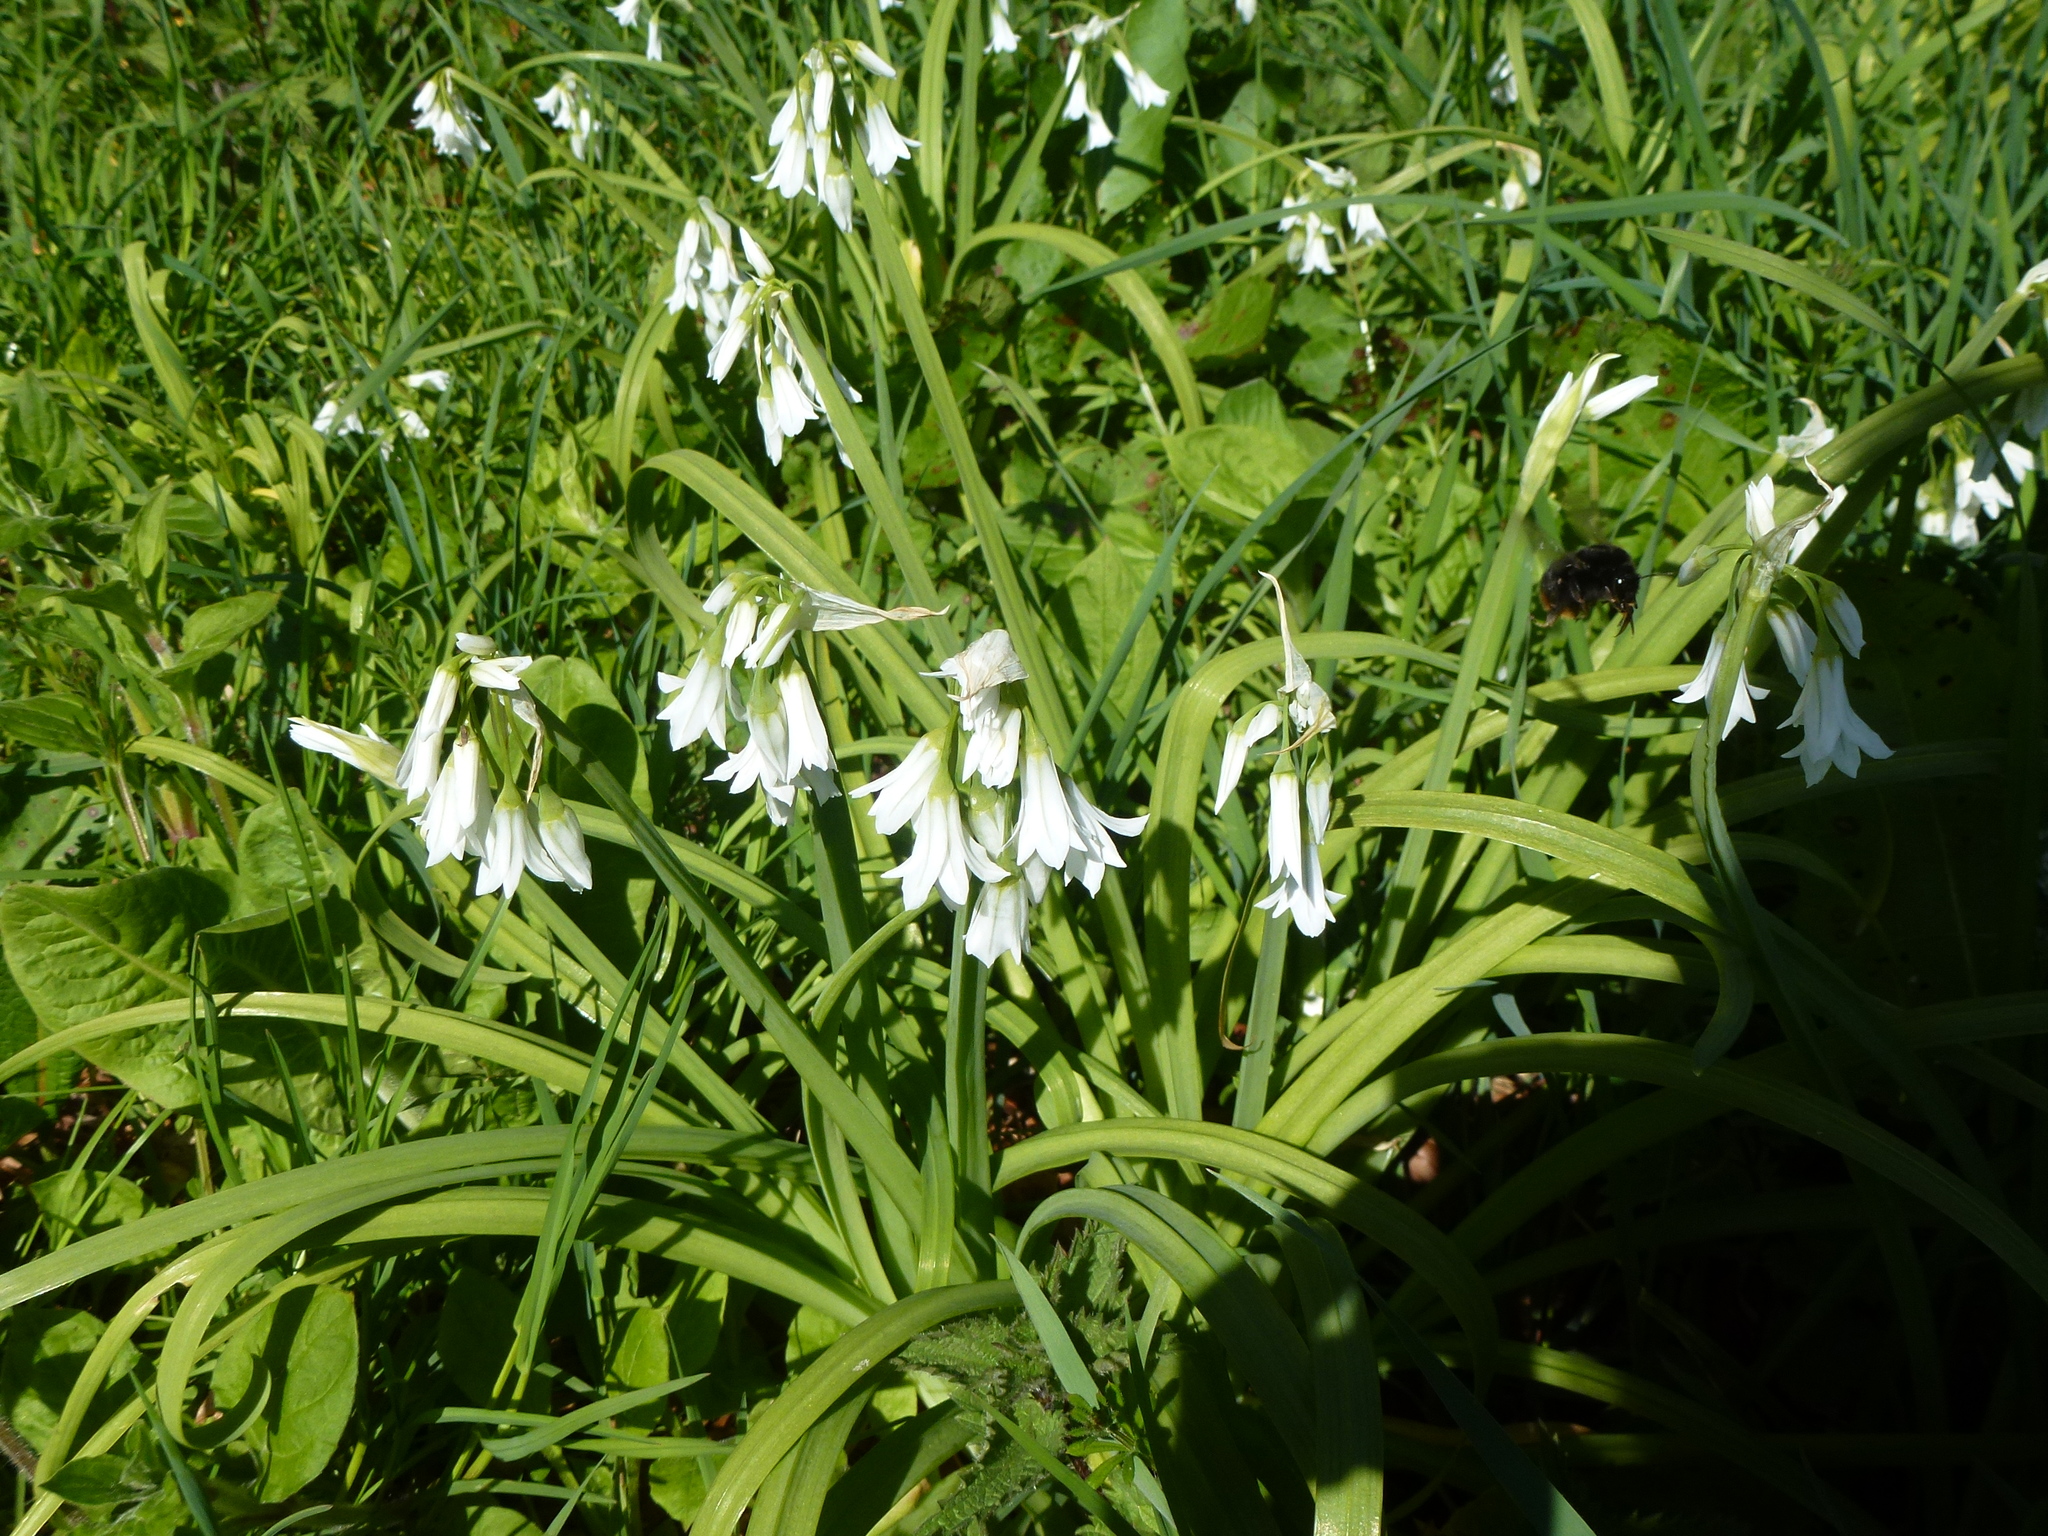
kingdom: Plantae
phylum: Tracheophyta
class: Liliopsida
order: Asparagales
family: Amaryllidaceae
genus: Allium
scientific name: Allium triquetrum
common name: Three-cornered garlic
